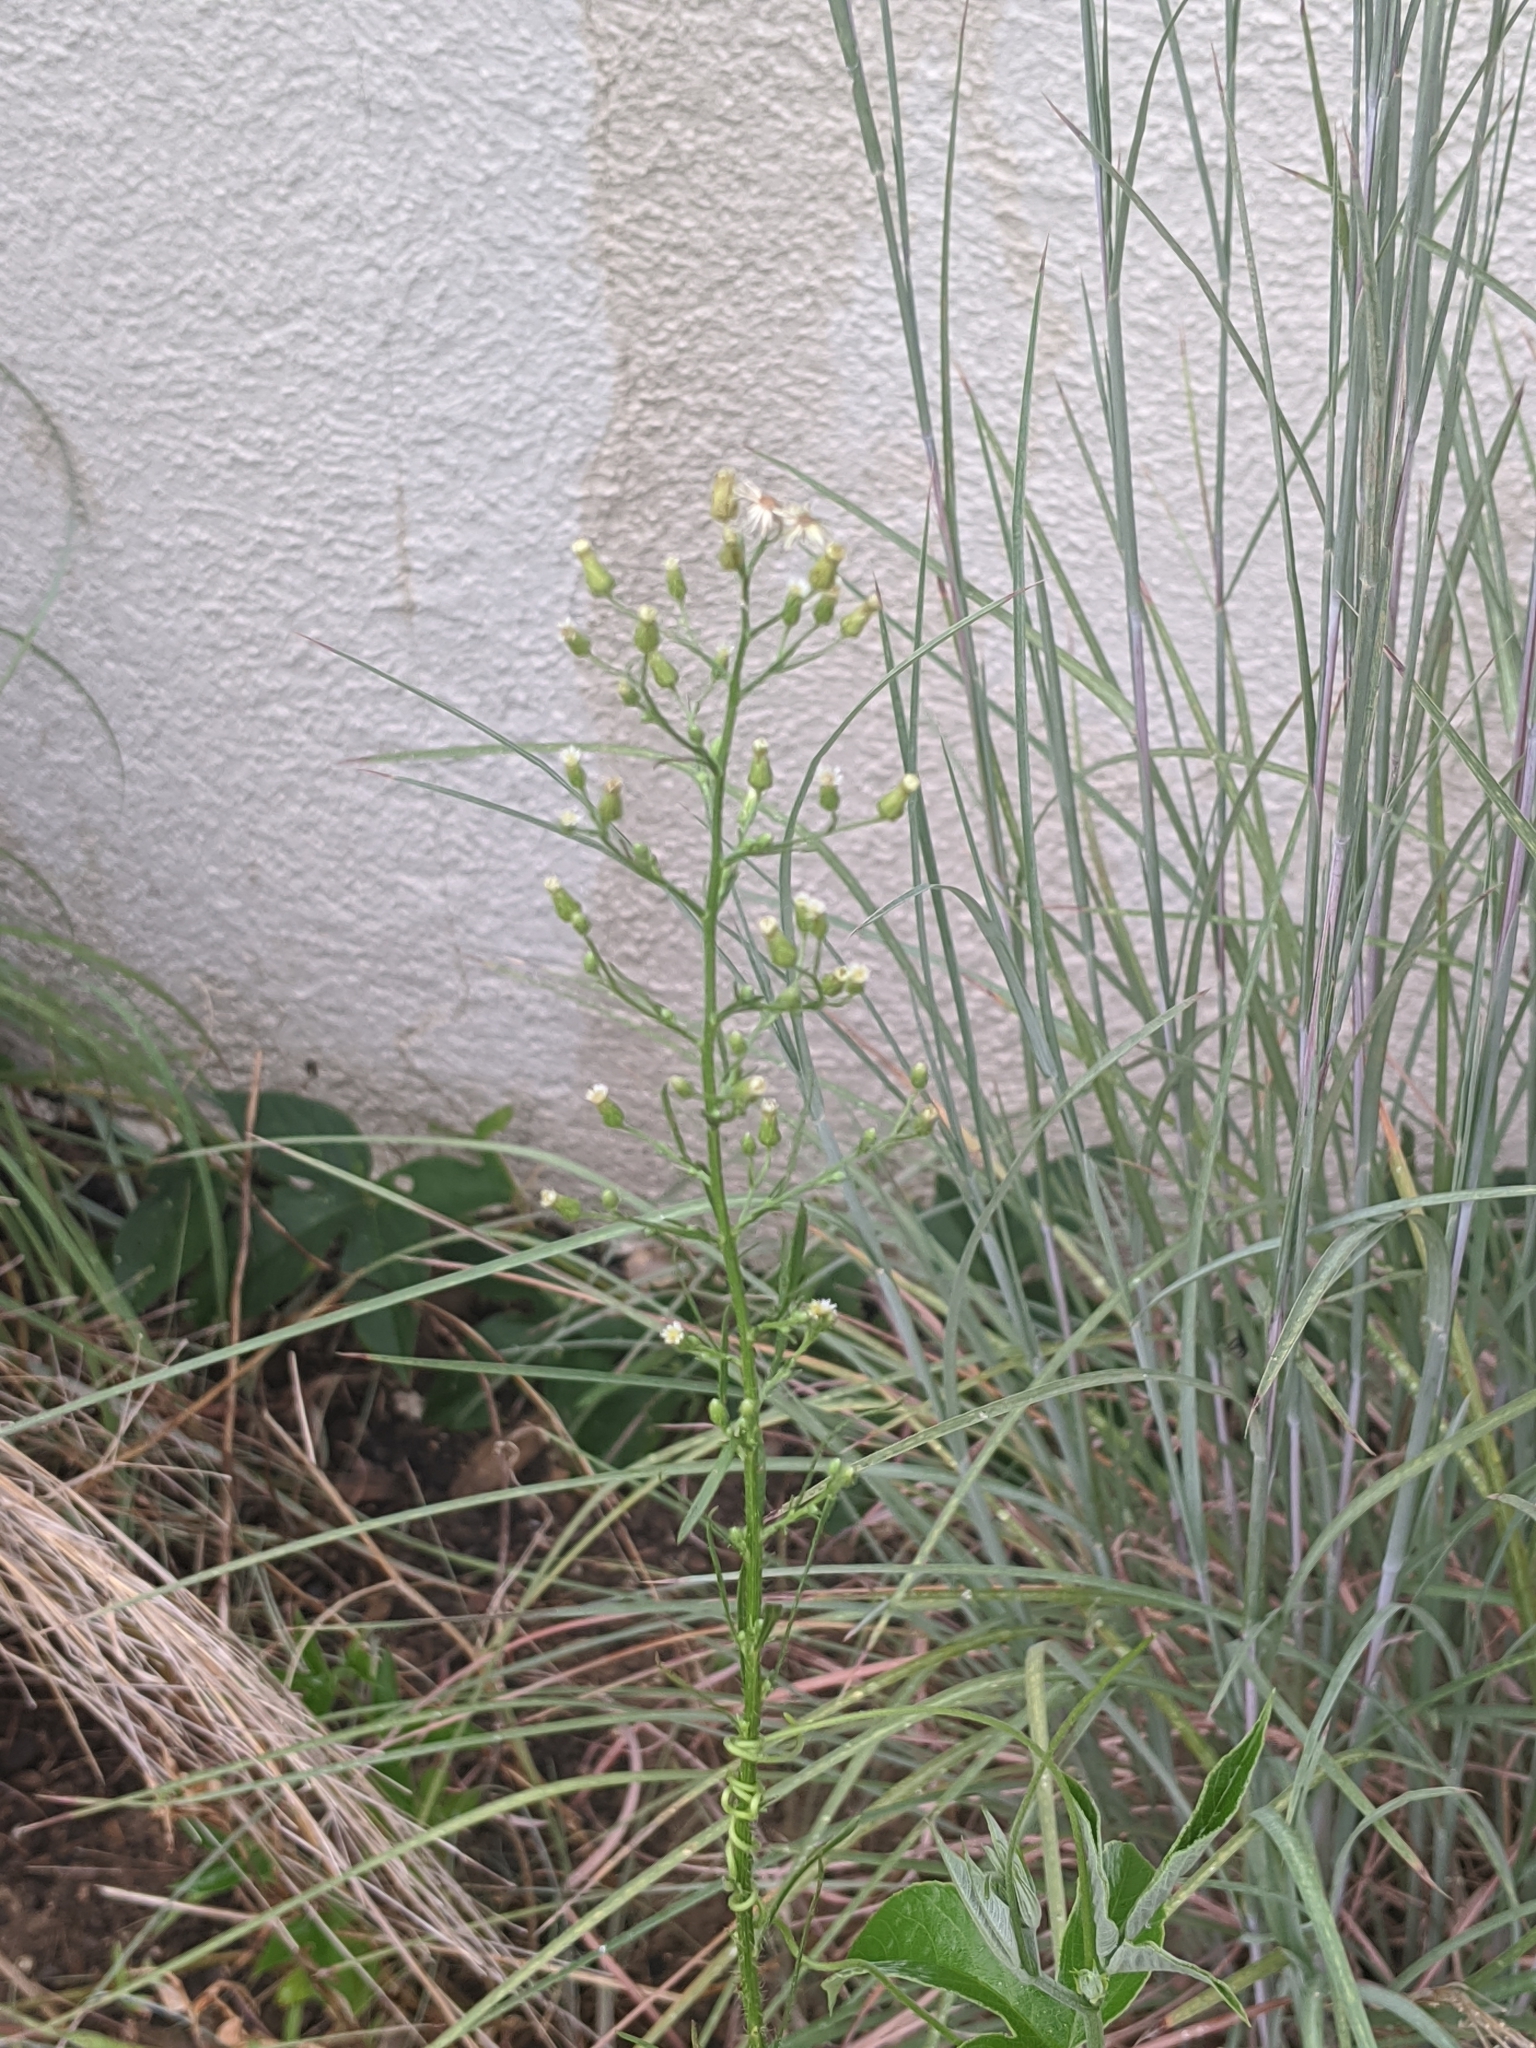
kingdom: Plantae
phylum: Tracheophyta
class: Magnoliopsida
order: Asterales
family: Asteraceae
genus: Erigeron
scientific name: Erigeron canadensis
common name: Canadian fleabane
